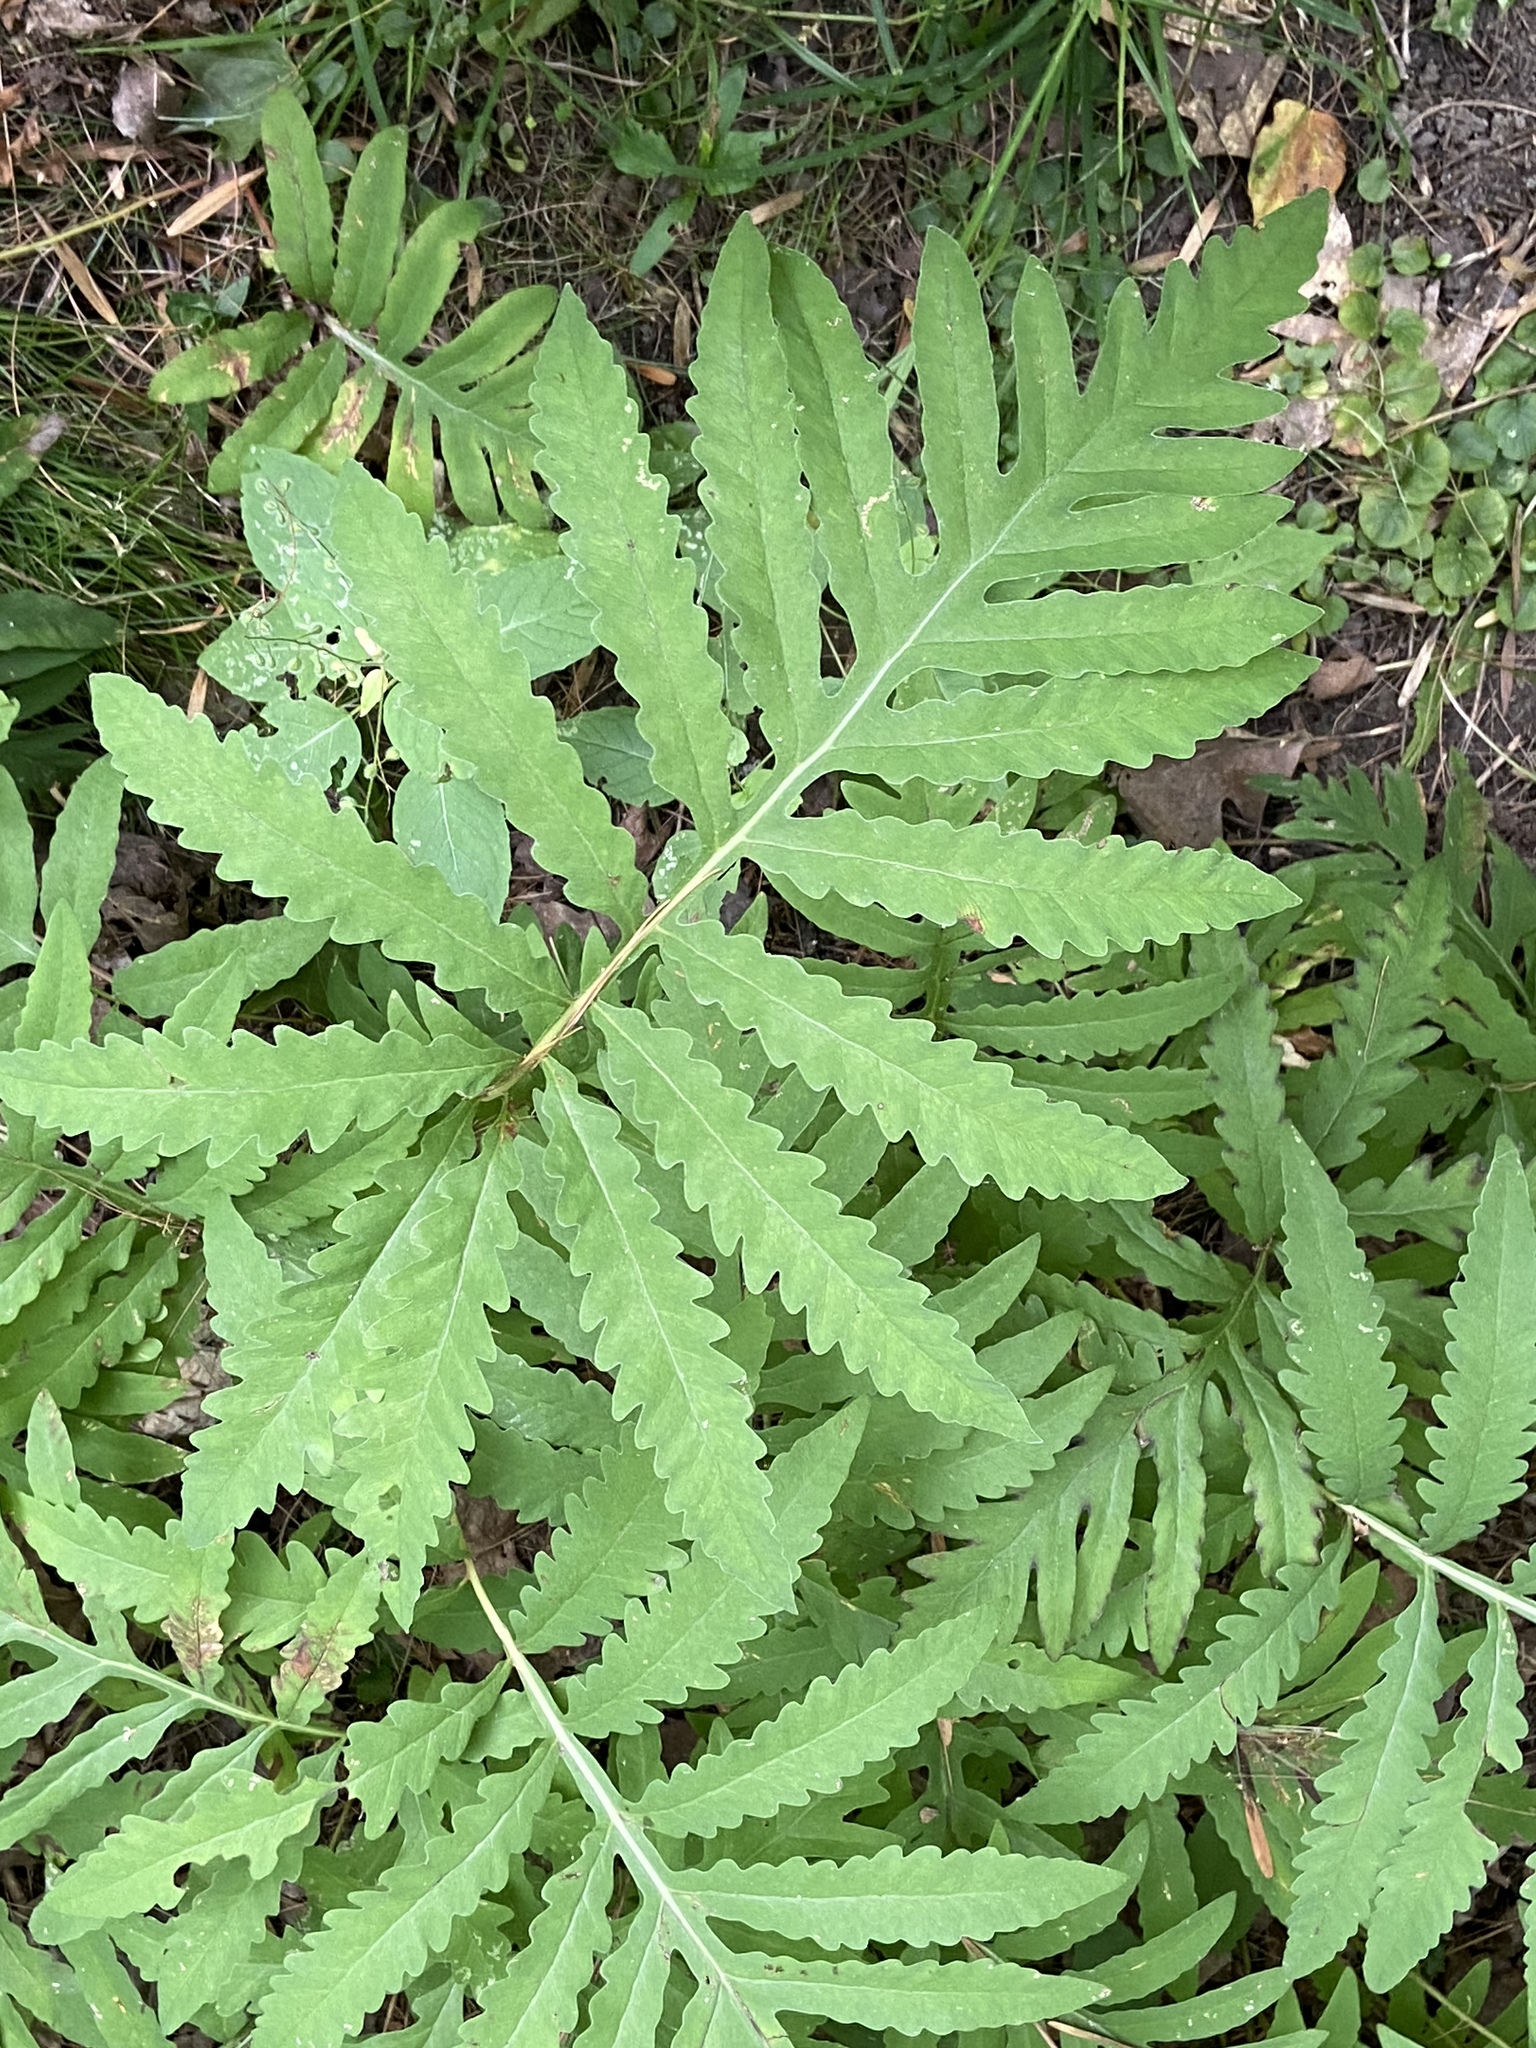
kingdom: Plantae
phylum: Tracheophyta
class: Polypodiopsida
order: Polypodiales
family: Onocleaceae
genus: Onoclea
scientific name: Onoclea sensibilis
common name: Sensitive fern
